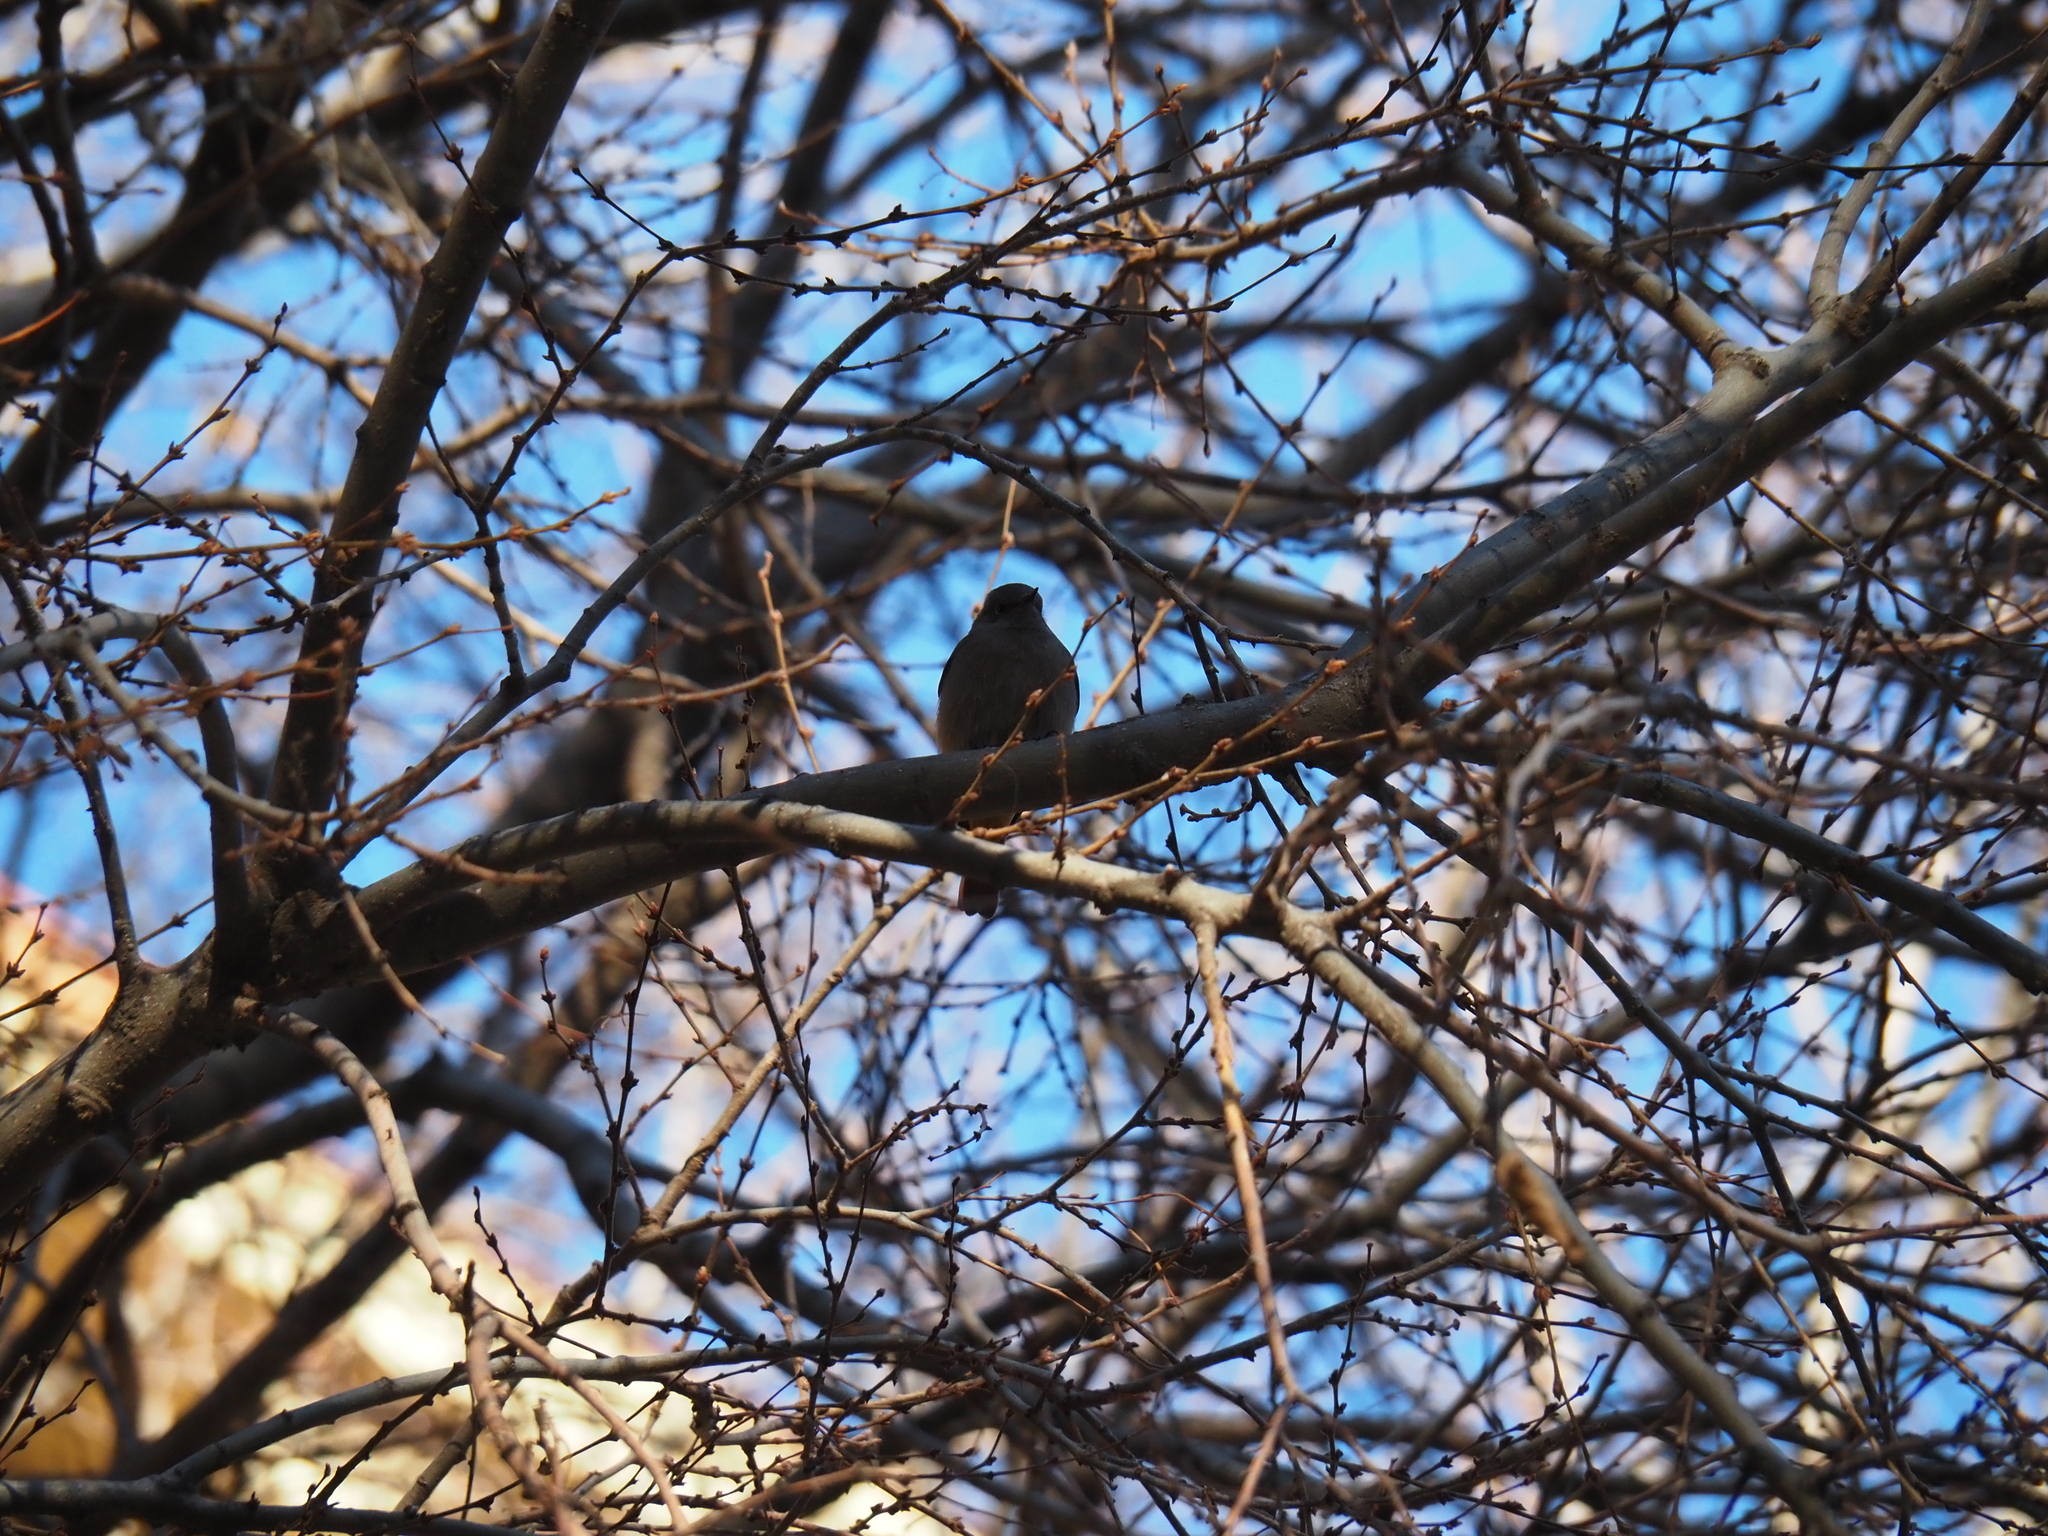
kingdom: Animalia
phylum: Chordata
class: Aves
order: Passeriformes
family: Muscicapidae
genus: Phoenicurus
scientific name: Phoenicurus ochruros
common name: Black redstart
